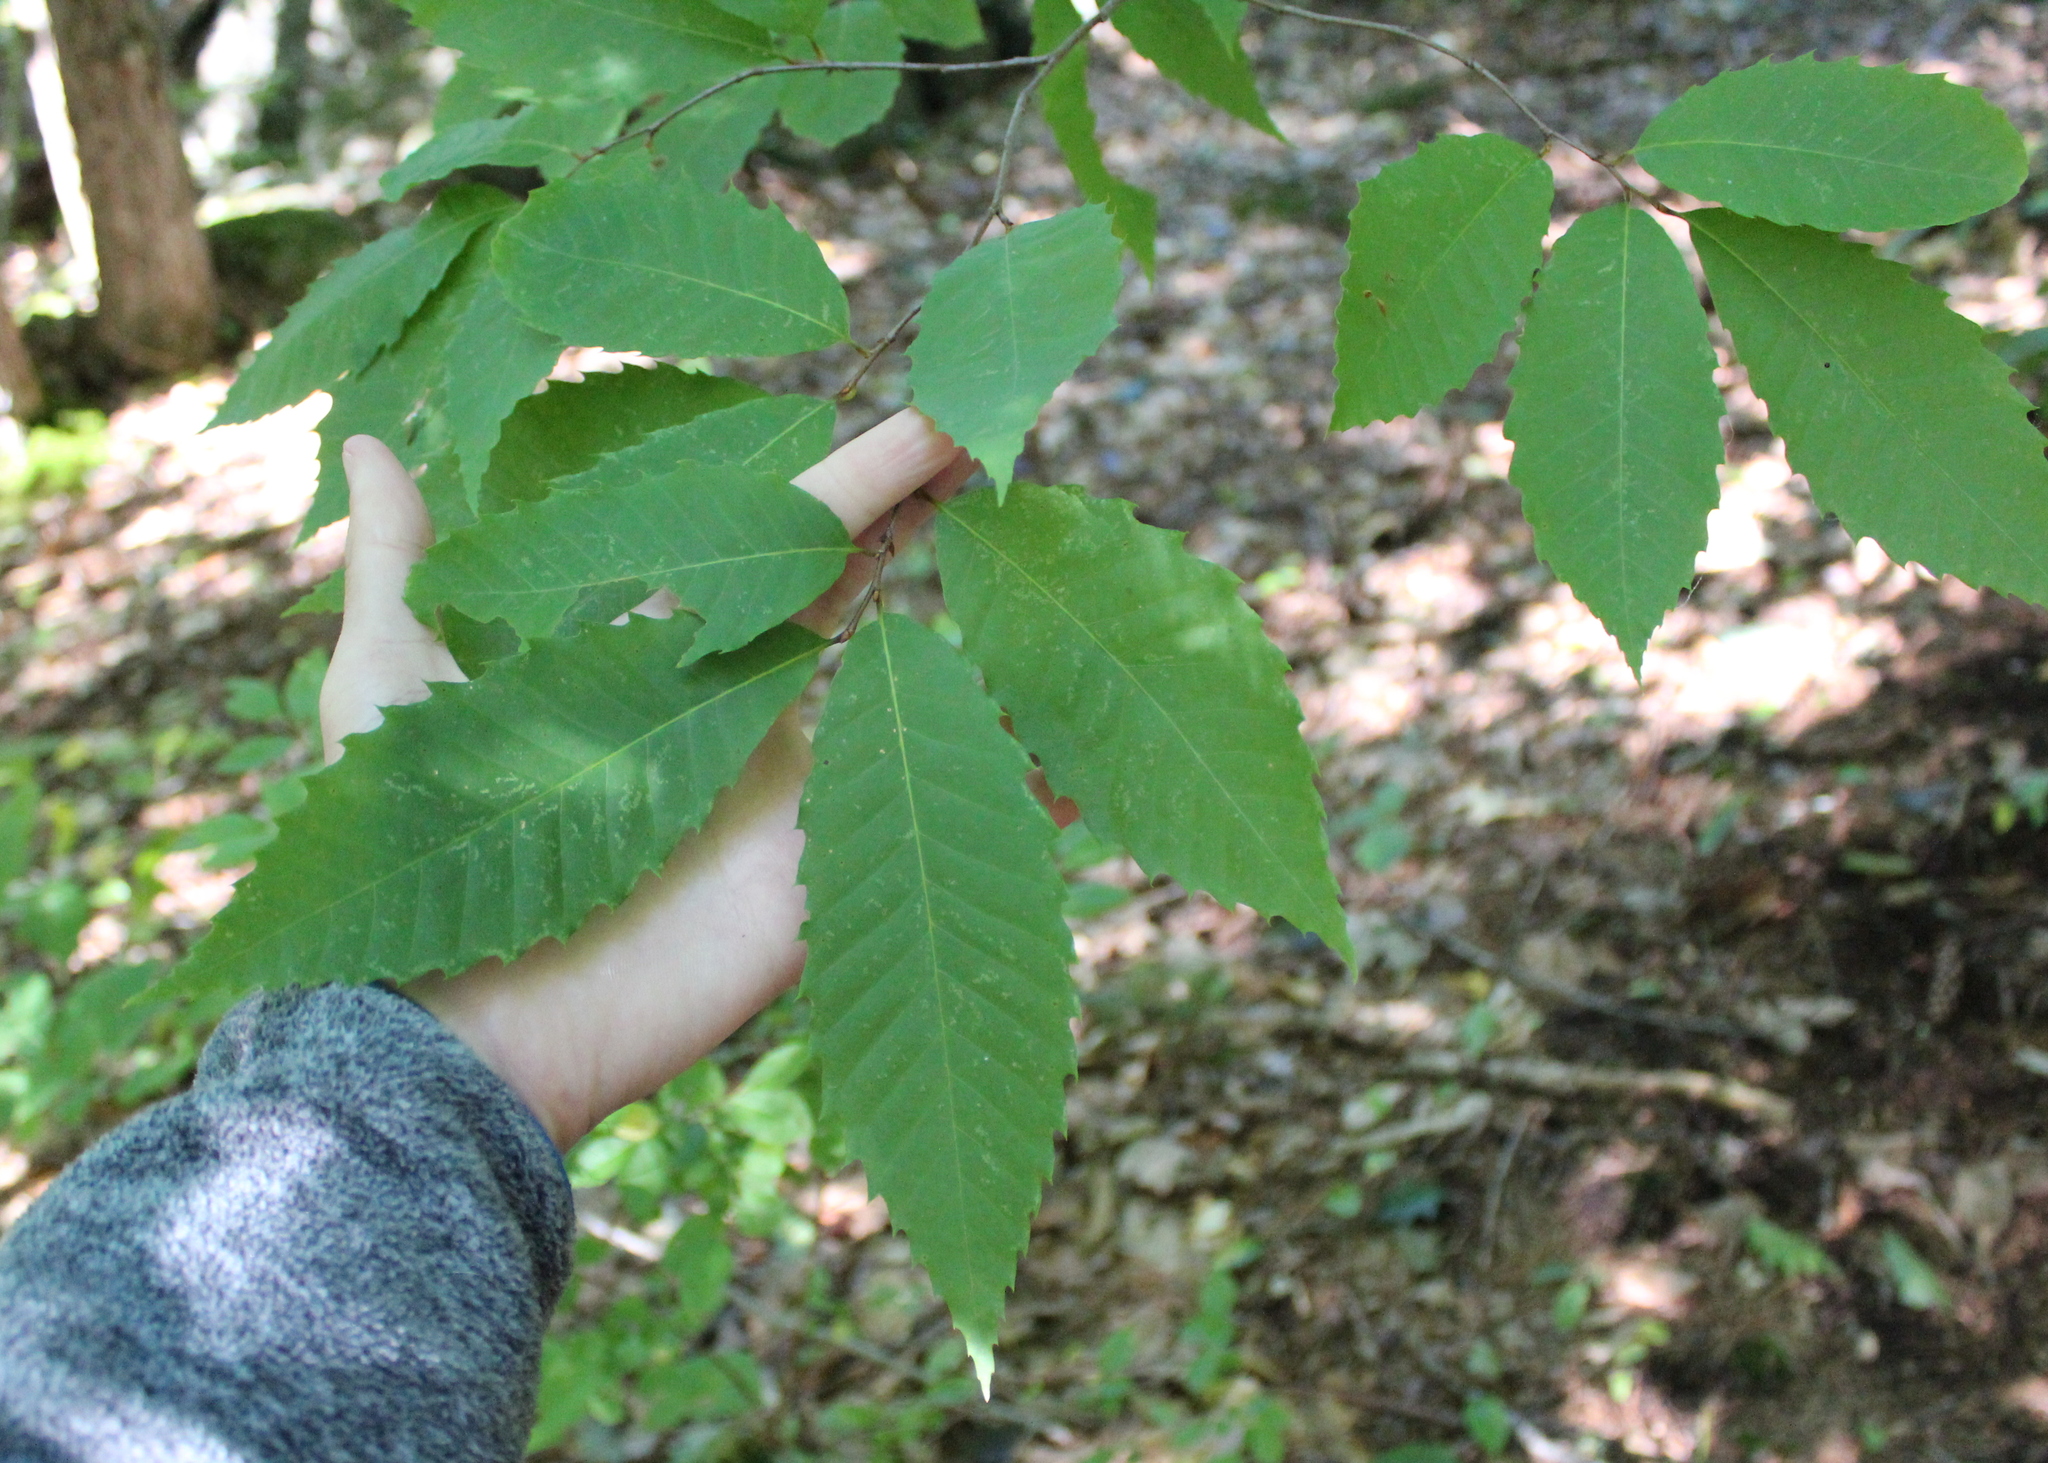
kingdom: Plantae
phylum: Tracheophyta
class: Magnoliopsida
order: Fagales
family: Fagaceae
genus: Castanea
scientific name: Castanea dentata
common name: American chestnut
